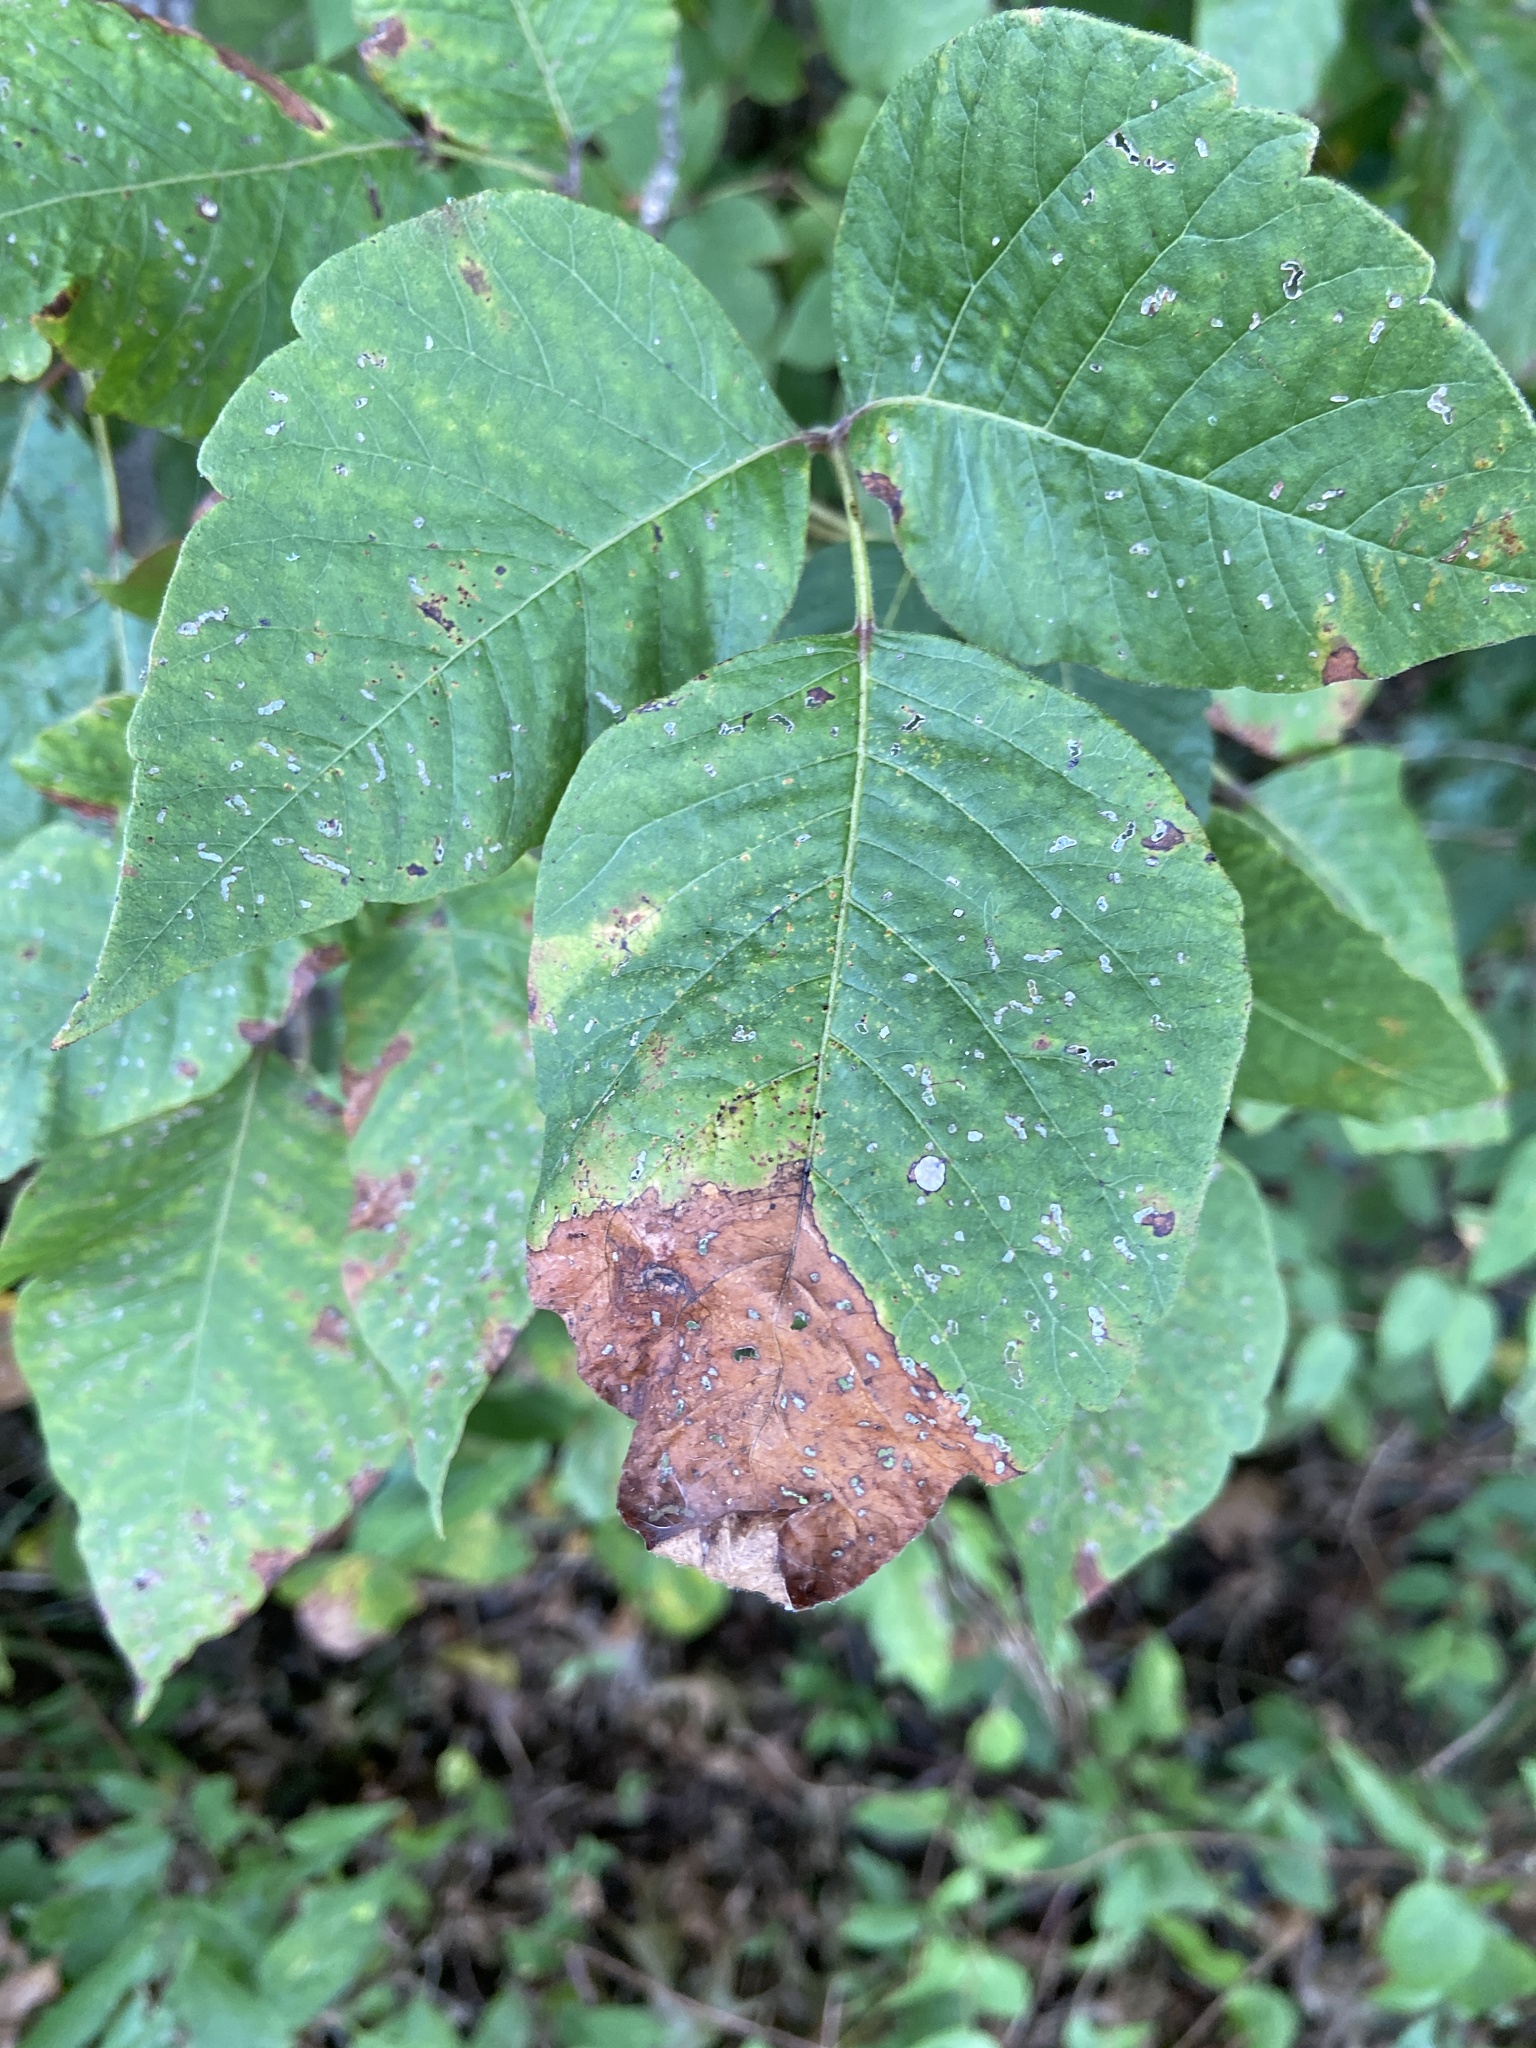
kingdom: Plantae
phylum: Tracheophyta
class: Magnoliopsida
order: Sapindales
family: Anacardiaceae
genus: Toxicodendron
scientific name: Toxicodendron radicans
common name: Poison ivy
